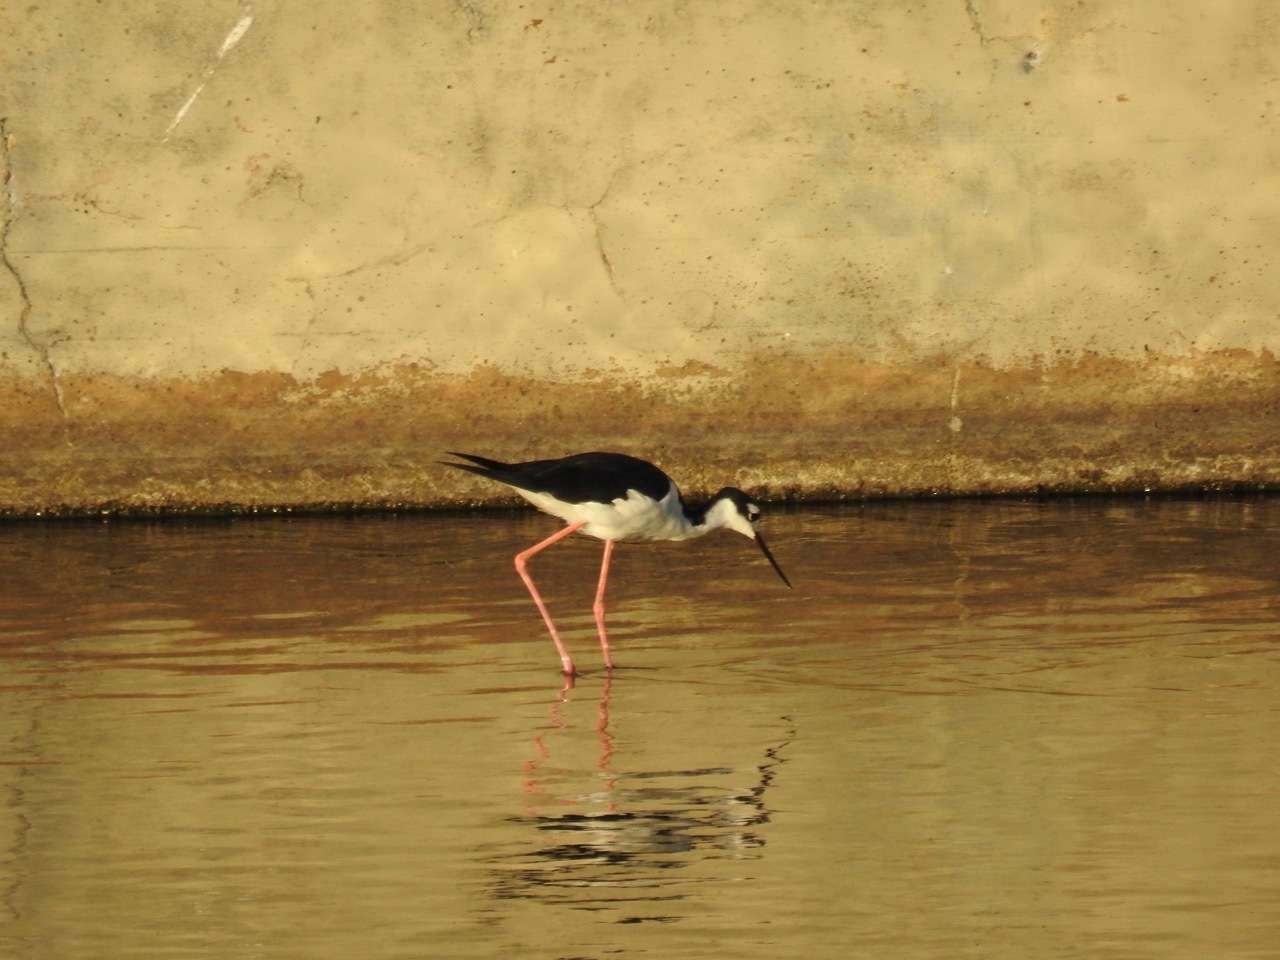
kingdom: Animalia
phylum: Chordata
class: Aves
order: Charadriiformes
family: Recurvirostridae
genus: Himantopus
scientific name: Himantopus mexicanus
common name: Black-necked stilt
